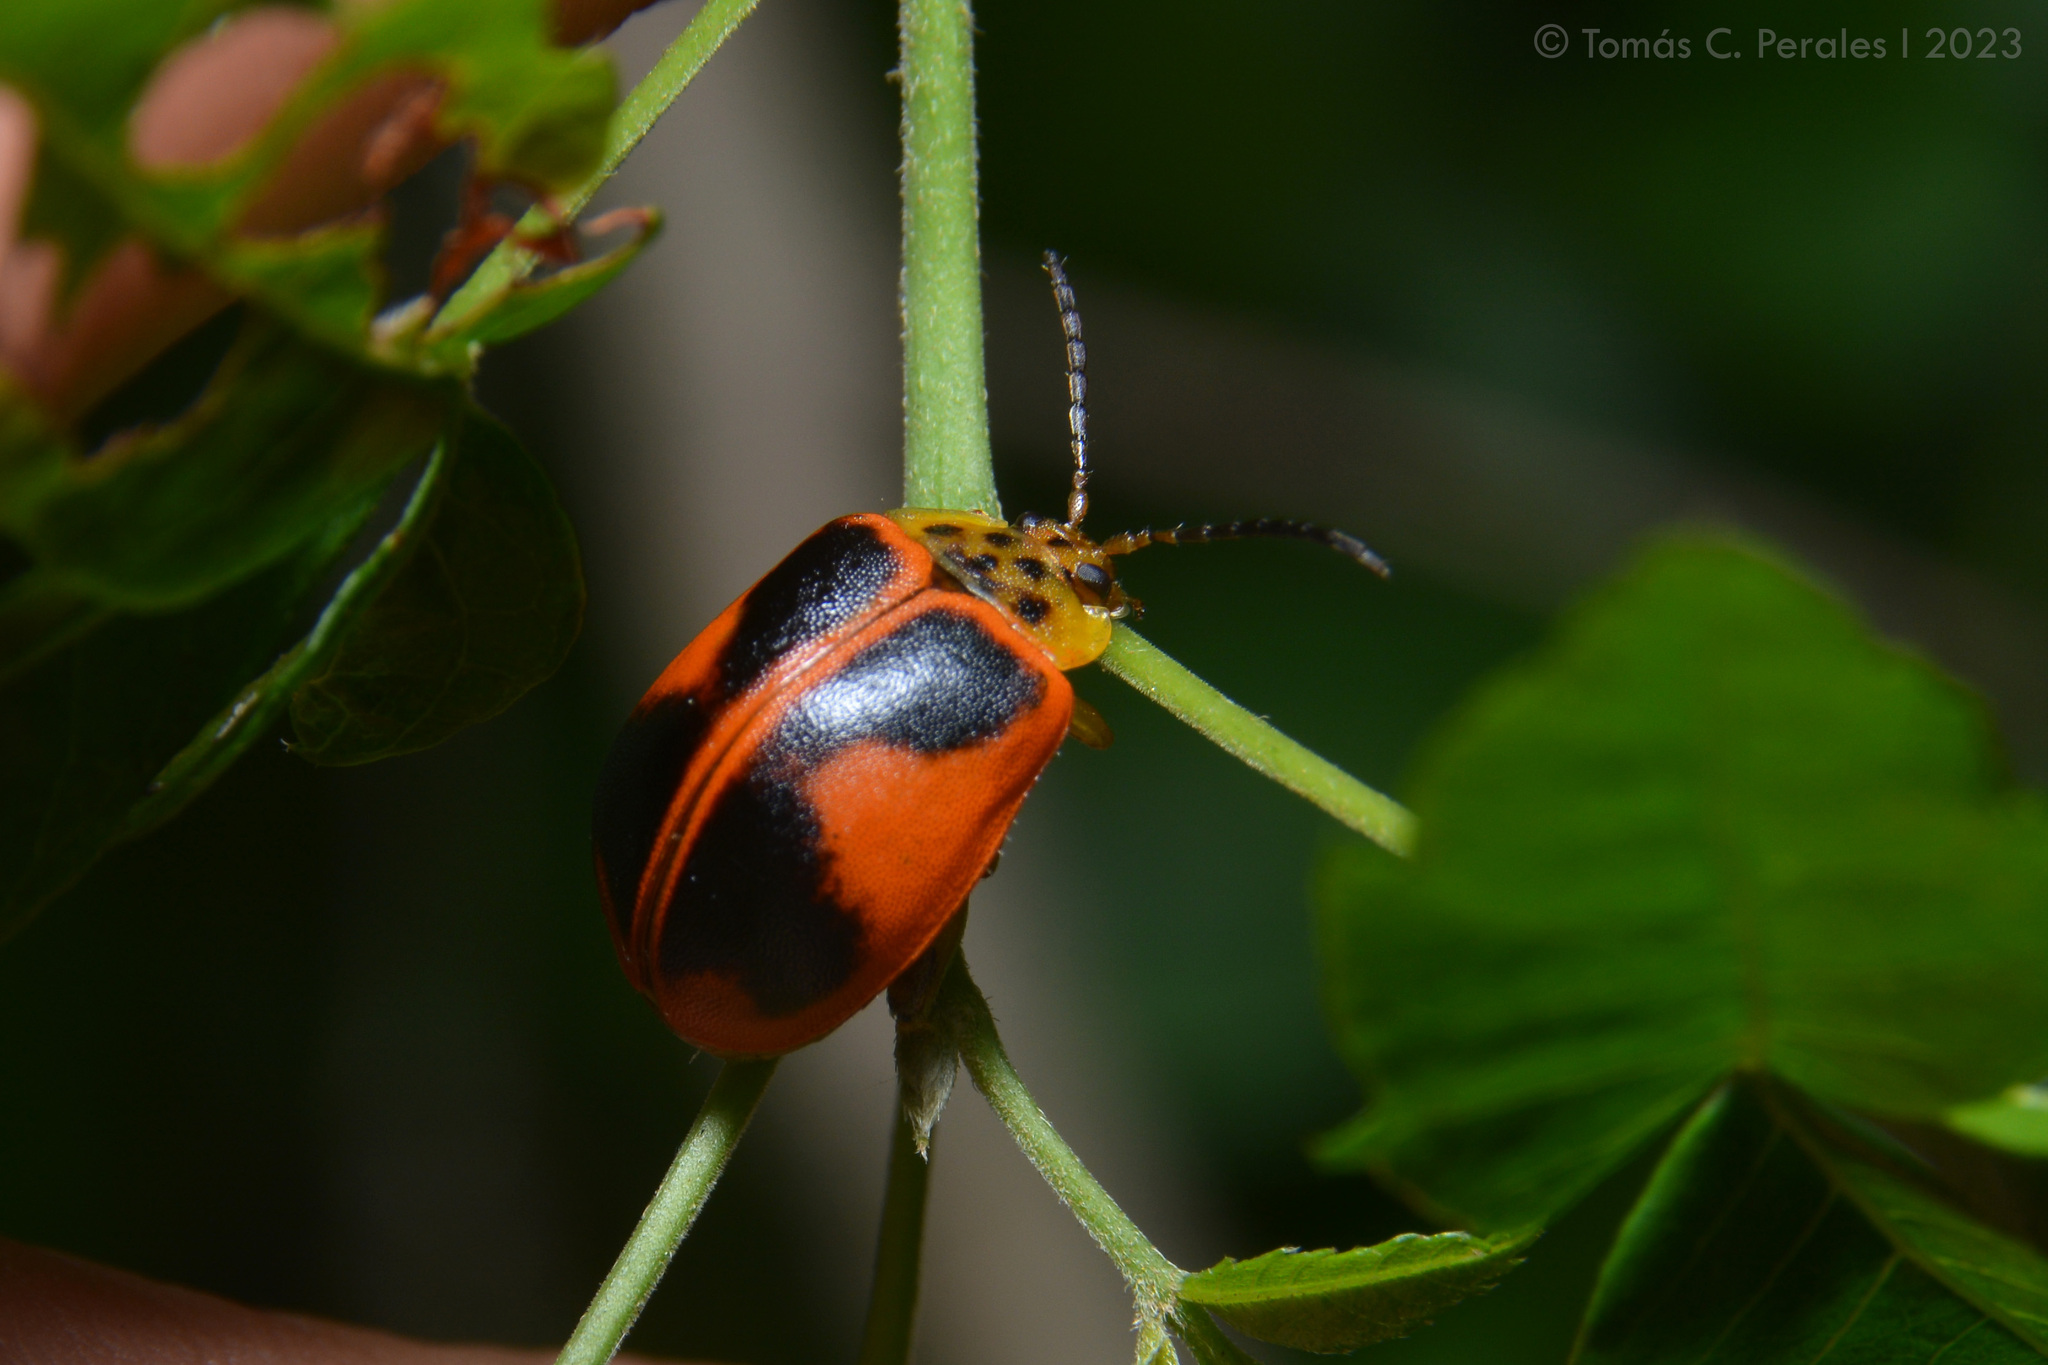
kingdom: Animalia
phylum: Arthropoda
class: Insecta
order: Coleoptera
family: Chrysomelidae
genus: Paranaita
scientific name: Paranaita
